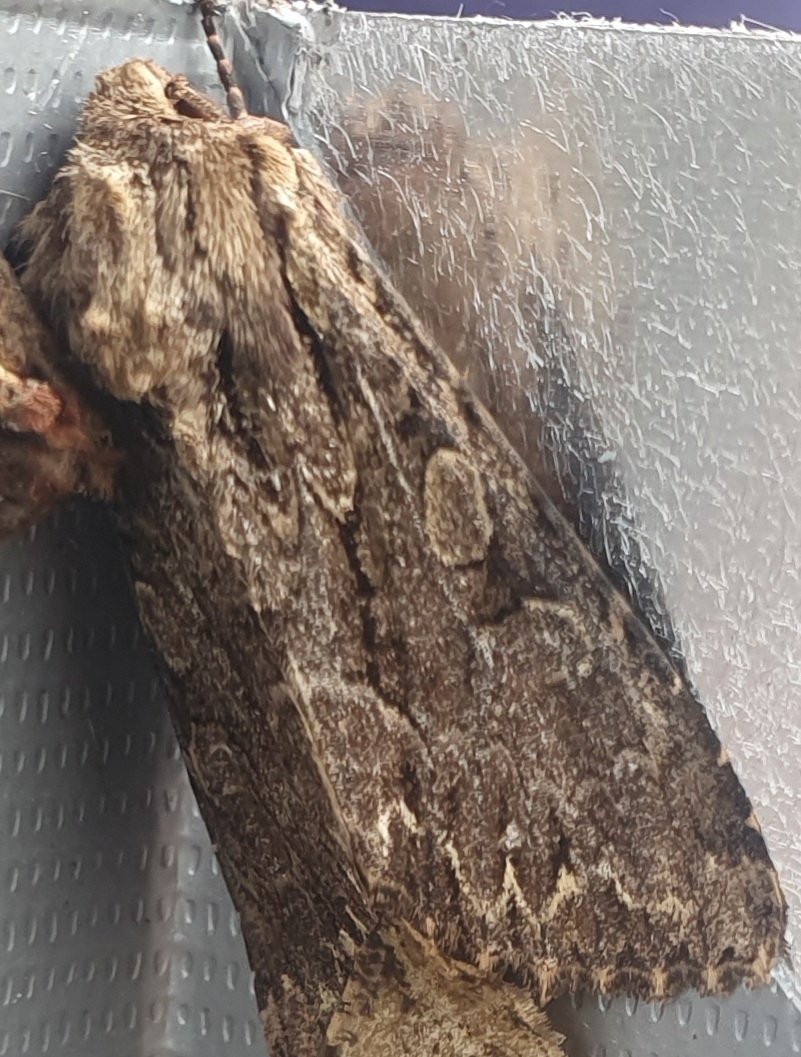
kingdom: Animalia
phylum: Arthropoda
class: Insecta
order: Lepidoptera
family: Noctuidae
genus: Apamea
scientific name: Apamea monoglypha
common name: Dark arches
